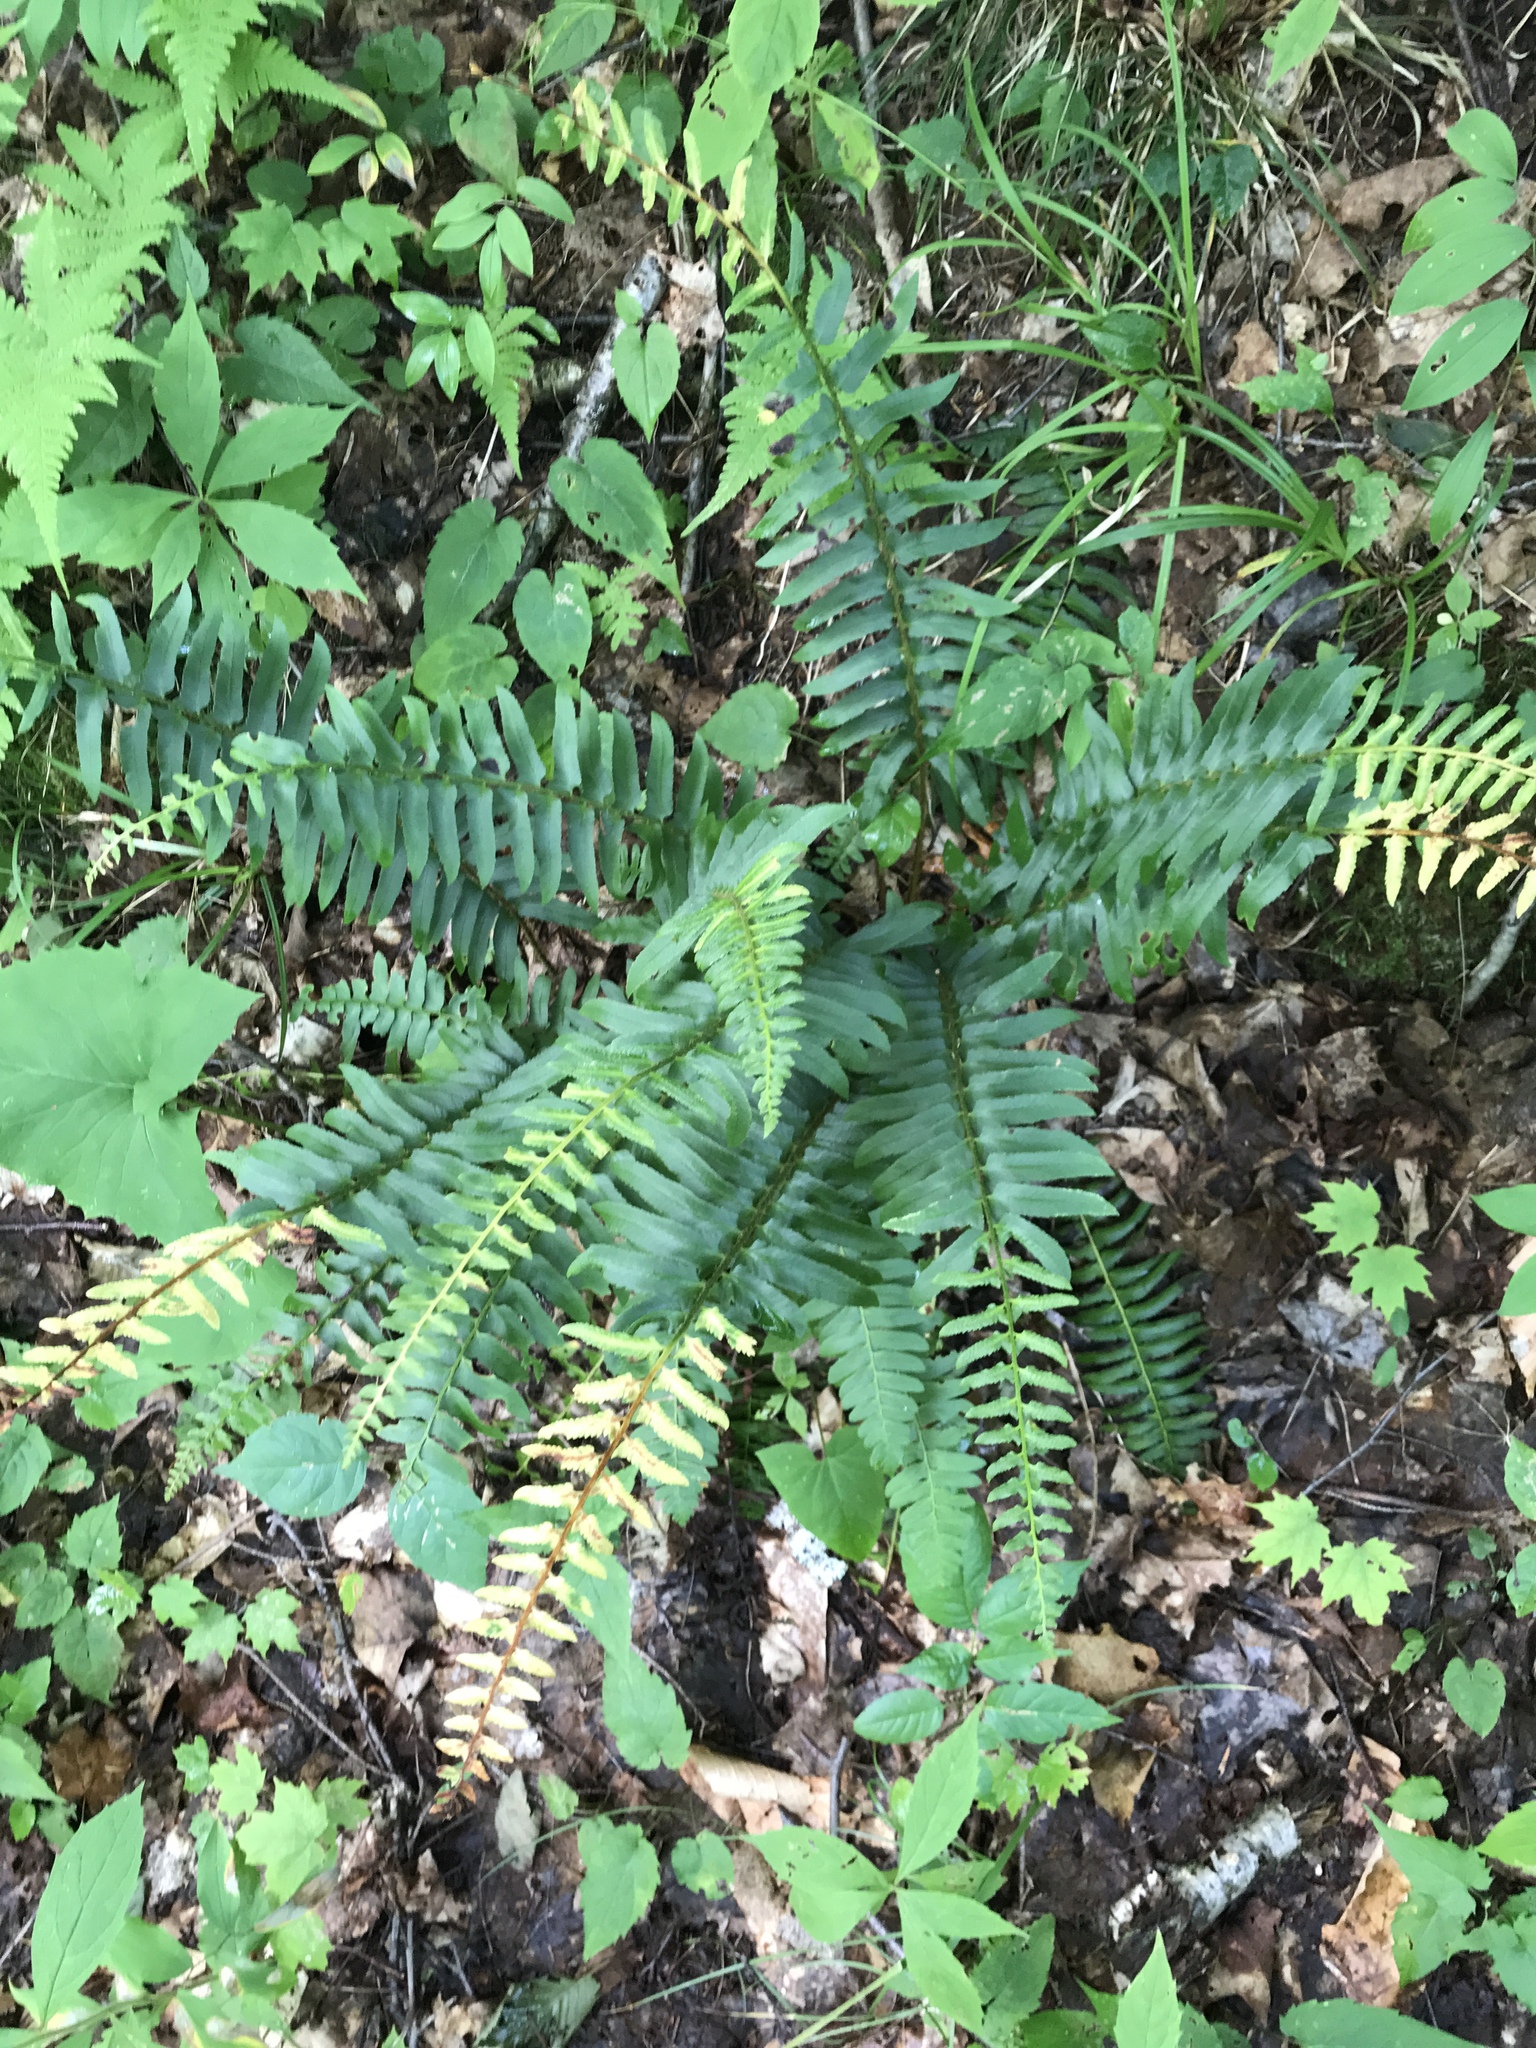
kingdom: Plantae
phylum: Tracheophyta
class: Polypodiopsida
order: Polypodiales
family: Dryopteridaceae
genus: Polystichum
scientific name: Polystichum acrostichoides
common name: Christmas fern
